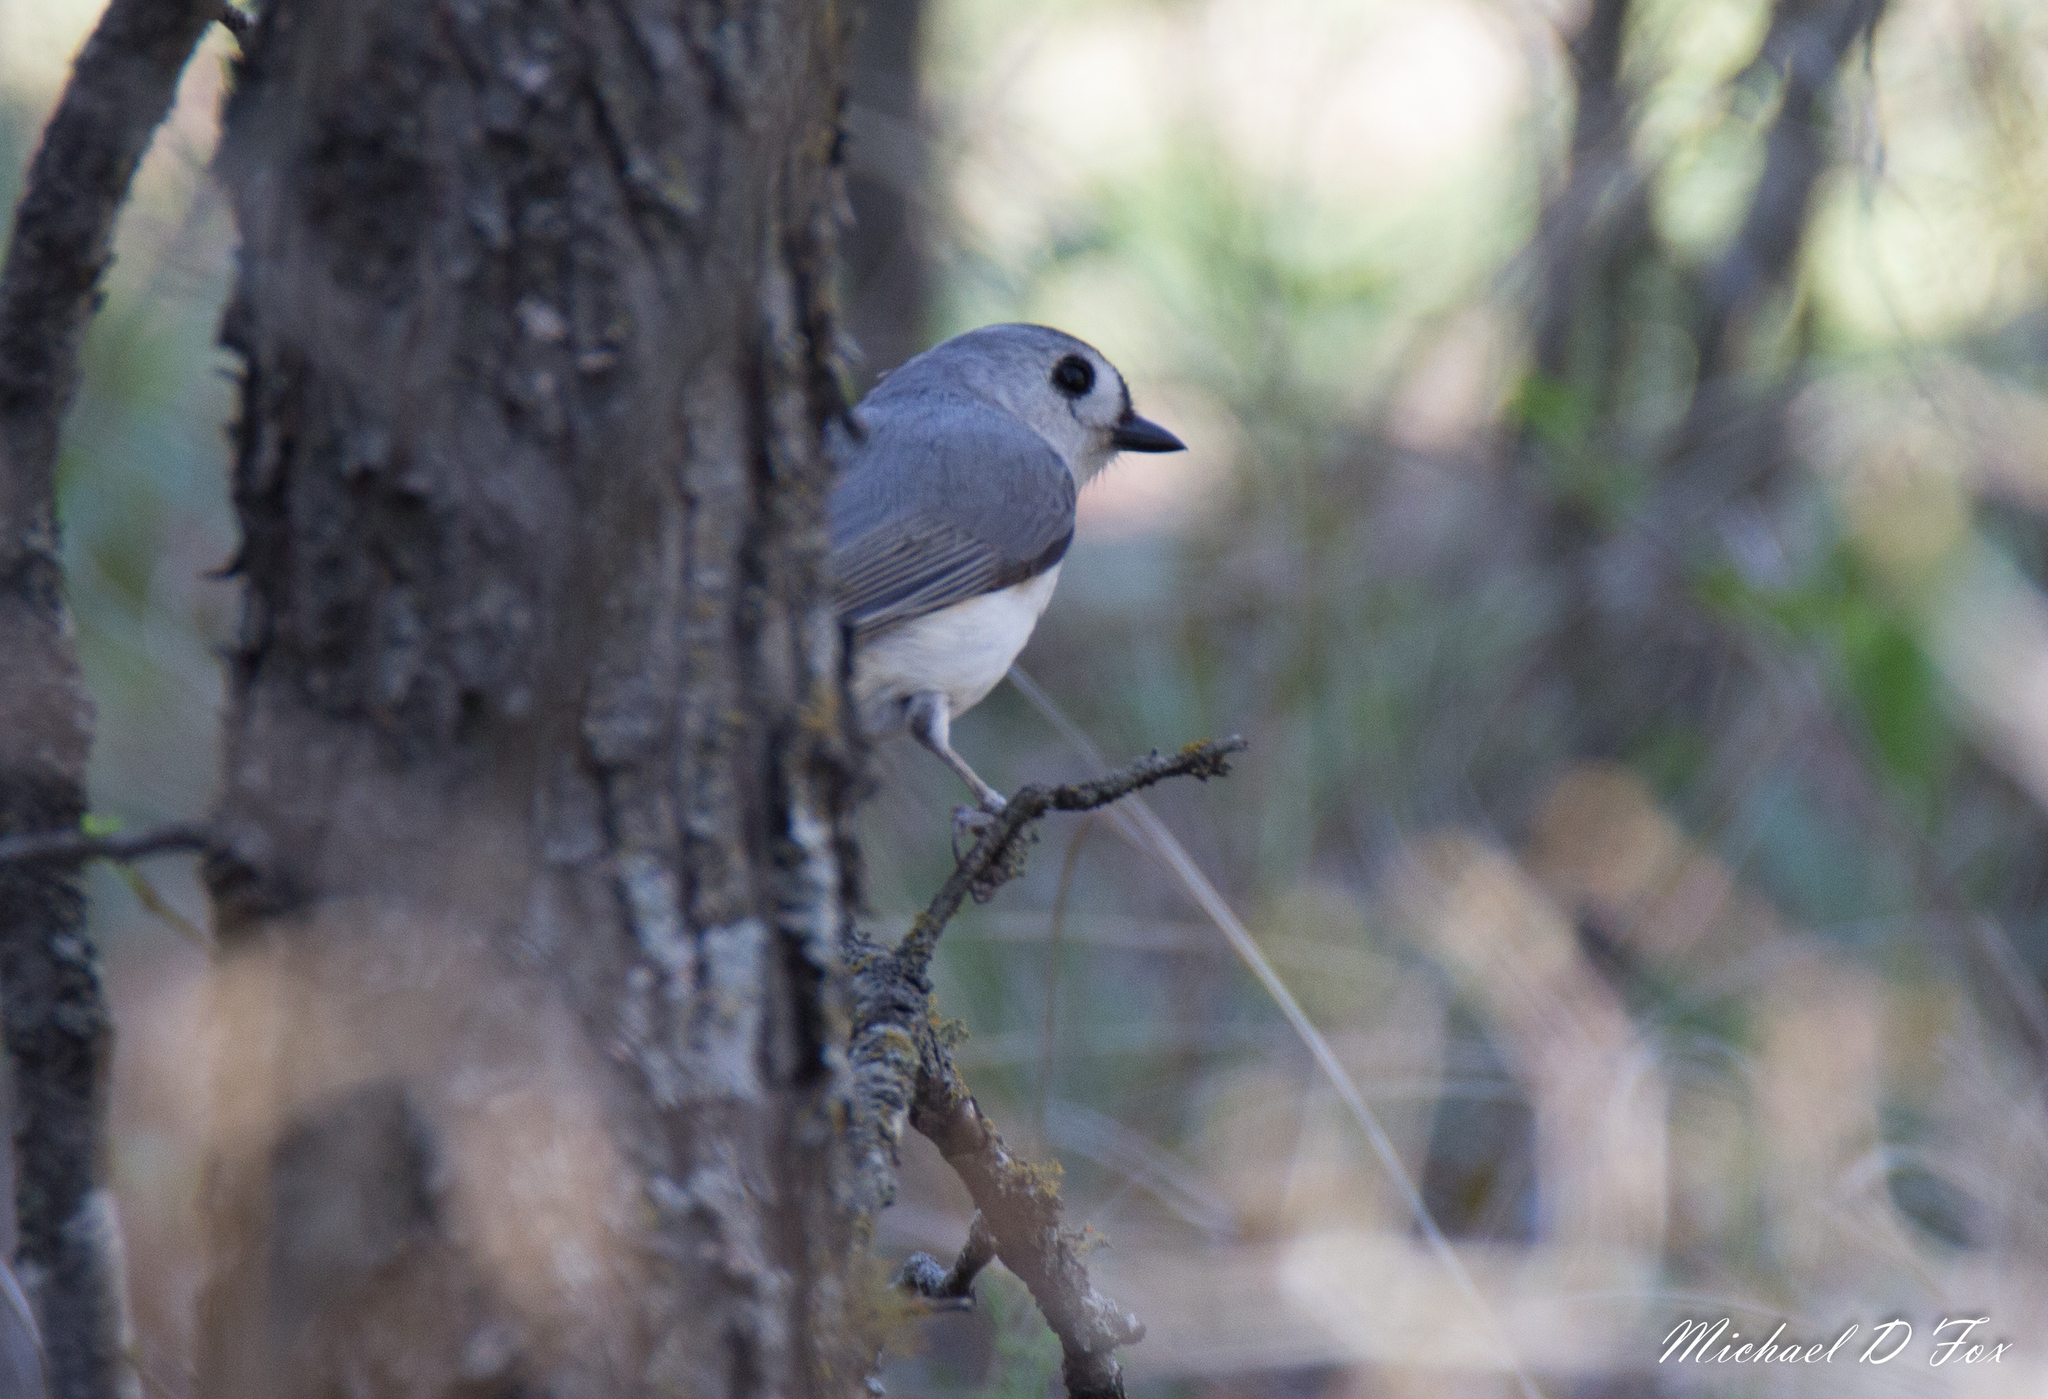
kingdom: Animalia
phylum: Chordata
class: Aves
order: Passeriformes
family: Paridae
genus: Baeolophus
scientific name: Baeolophus bicolor
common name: Tufted titmouse
